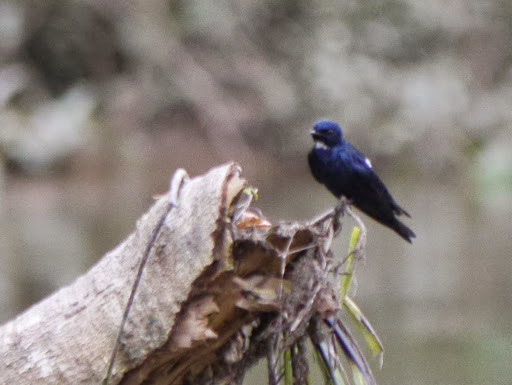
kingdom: Animalia
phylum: Chordata
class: Aves
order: Passeriformes
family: Hirundinidae
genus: Hirundo
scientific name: Hirundo nigrita
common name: White-bibbed swallow
